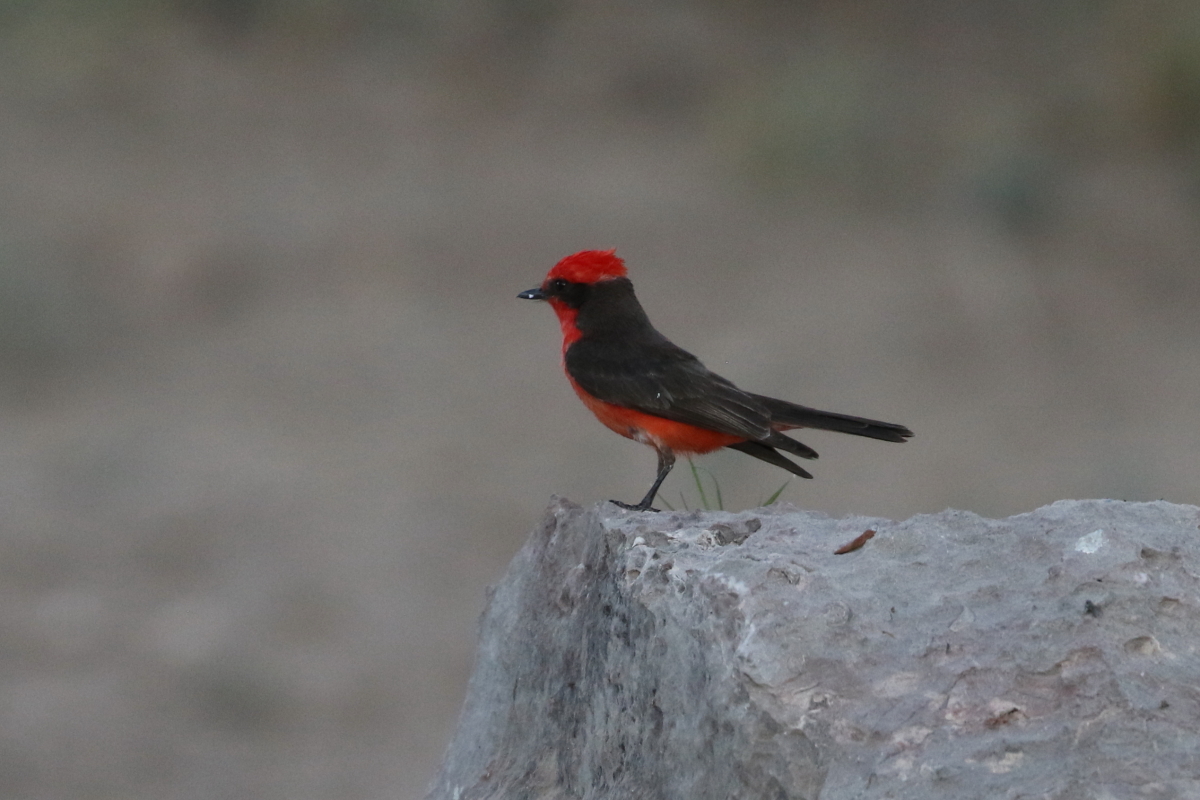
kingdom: Animalia
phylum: Chordata
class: Aves
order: Passeriformes
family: Tyrannidae
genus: Pyrocephalus
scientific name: Pyrocephalus rubinus
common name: Vermilion flycatcher
